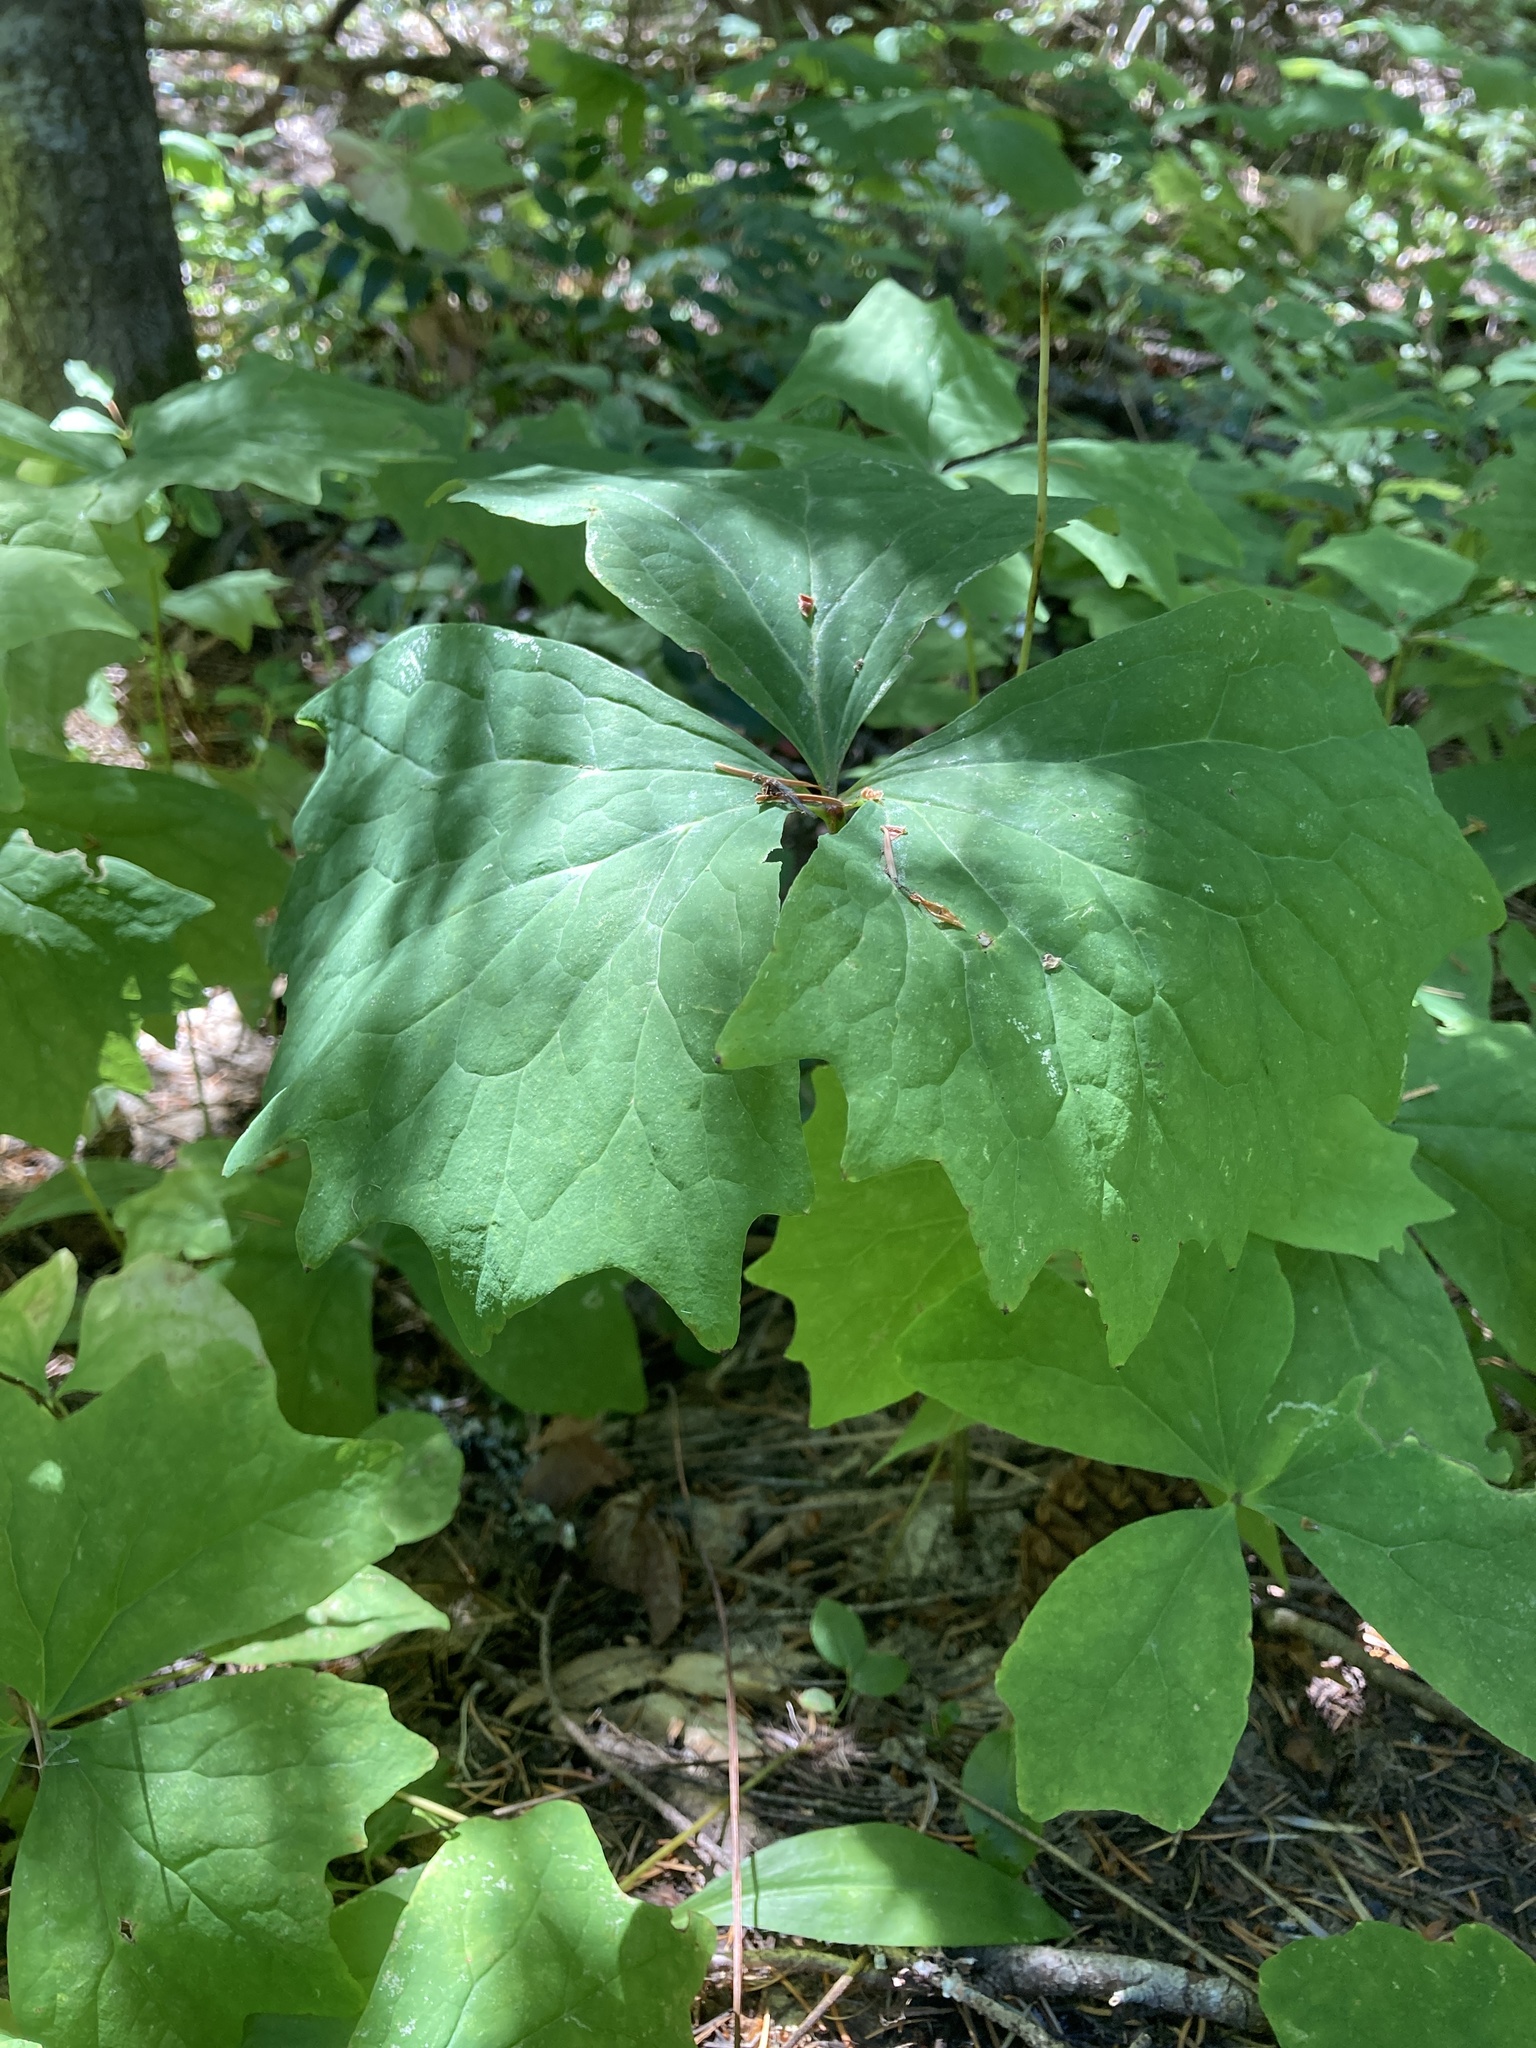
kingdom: Plantae
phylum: Tracheophyta
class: Magnoliopsida
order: Ranunculales
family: Berberidaceae
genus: Achlys
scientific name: Achlys triphylla
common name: Vanilla-leaf
